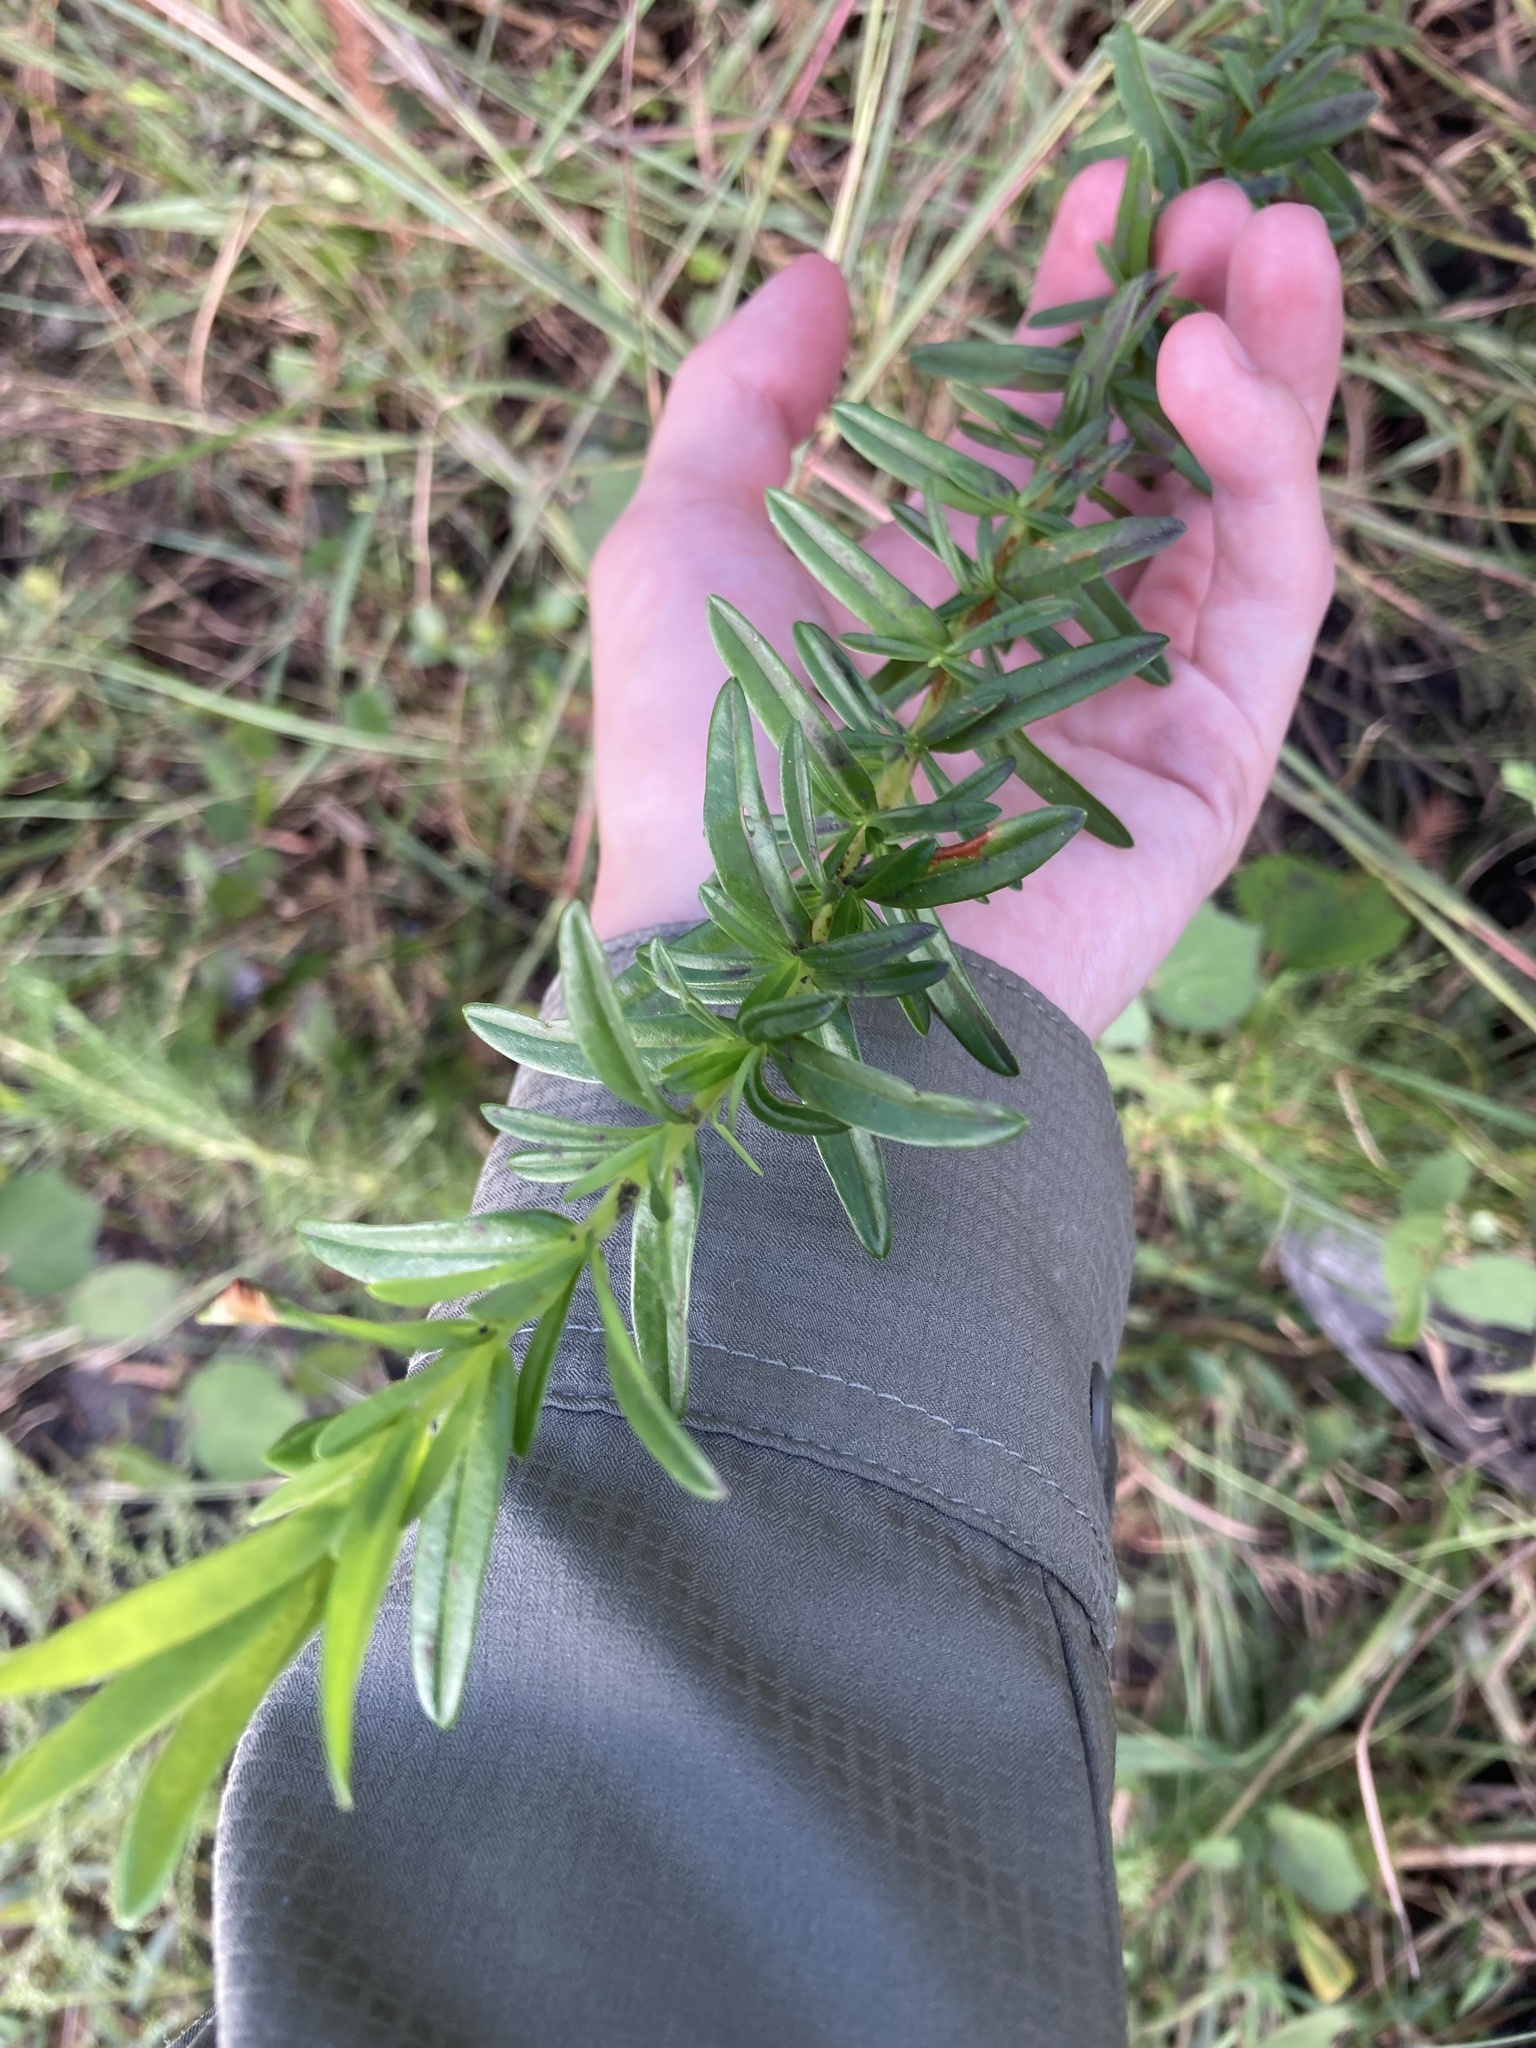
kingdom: Plantae
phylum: Tracheophyta
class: Magnoliopsida
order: Malpighiales
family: Hypericaceae
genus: Hypericum
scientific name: Hypericum cistifolium
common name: Round-pod st. john's-wort
